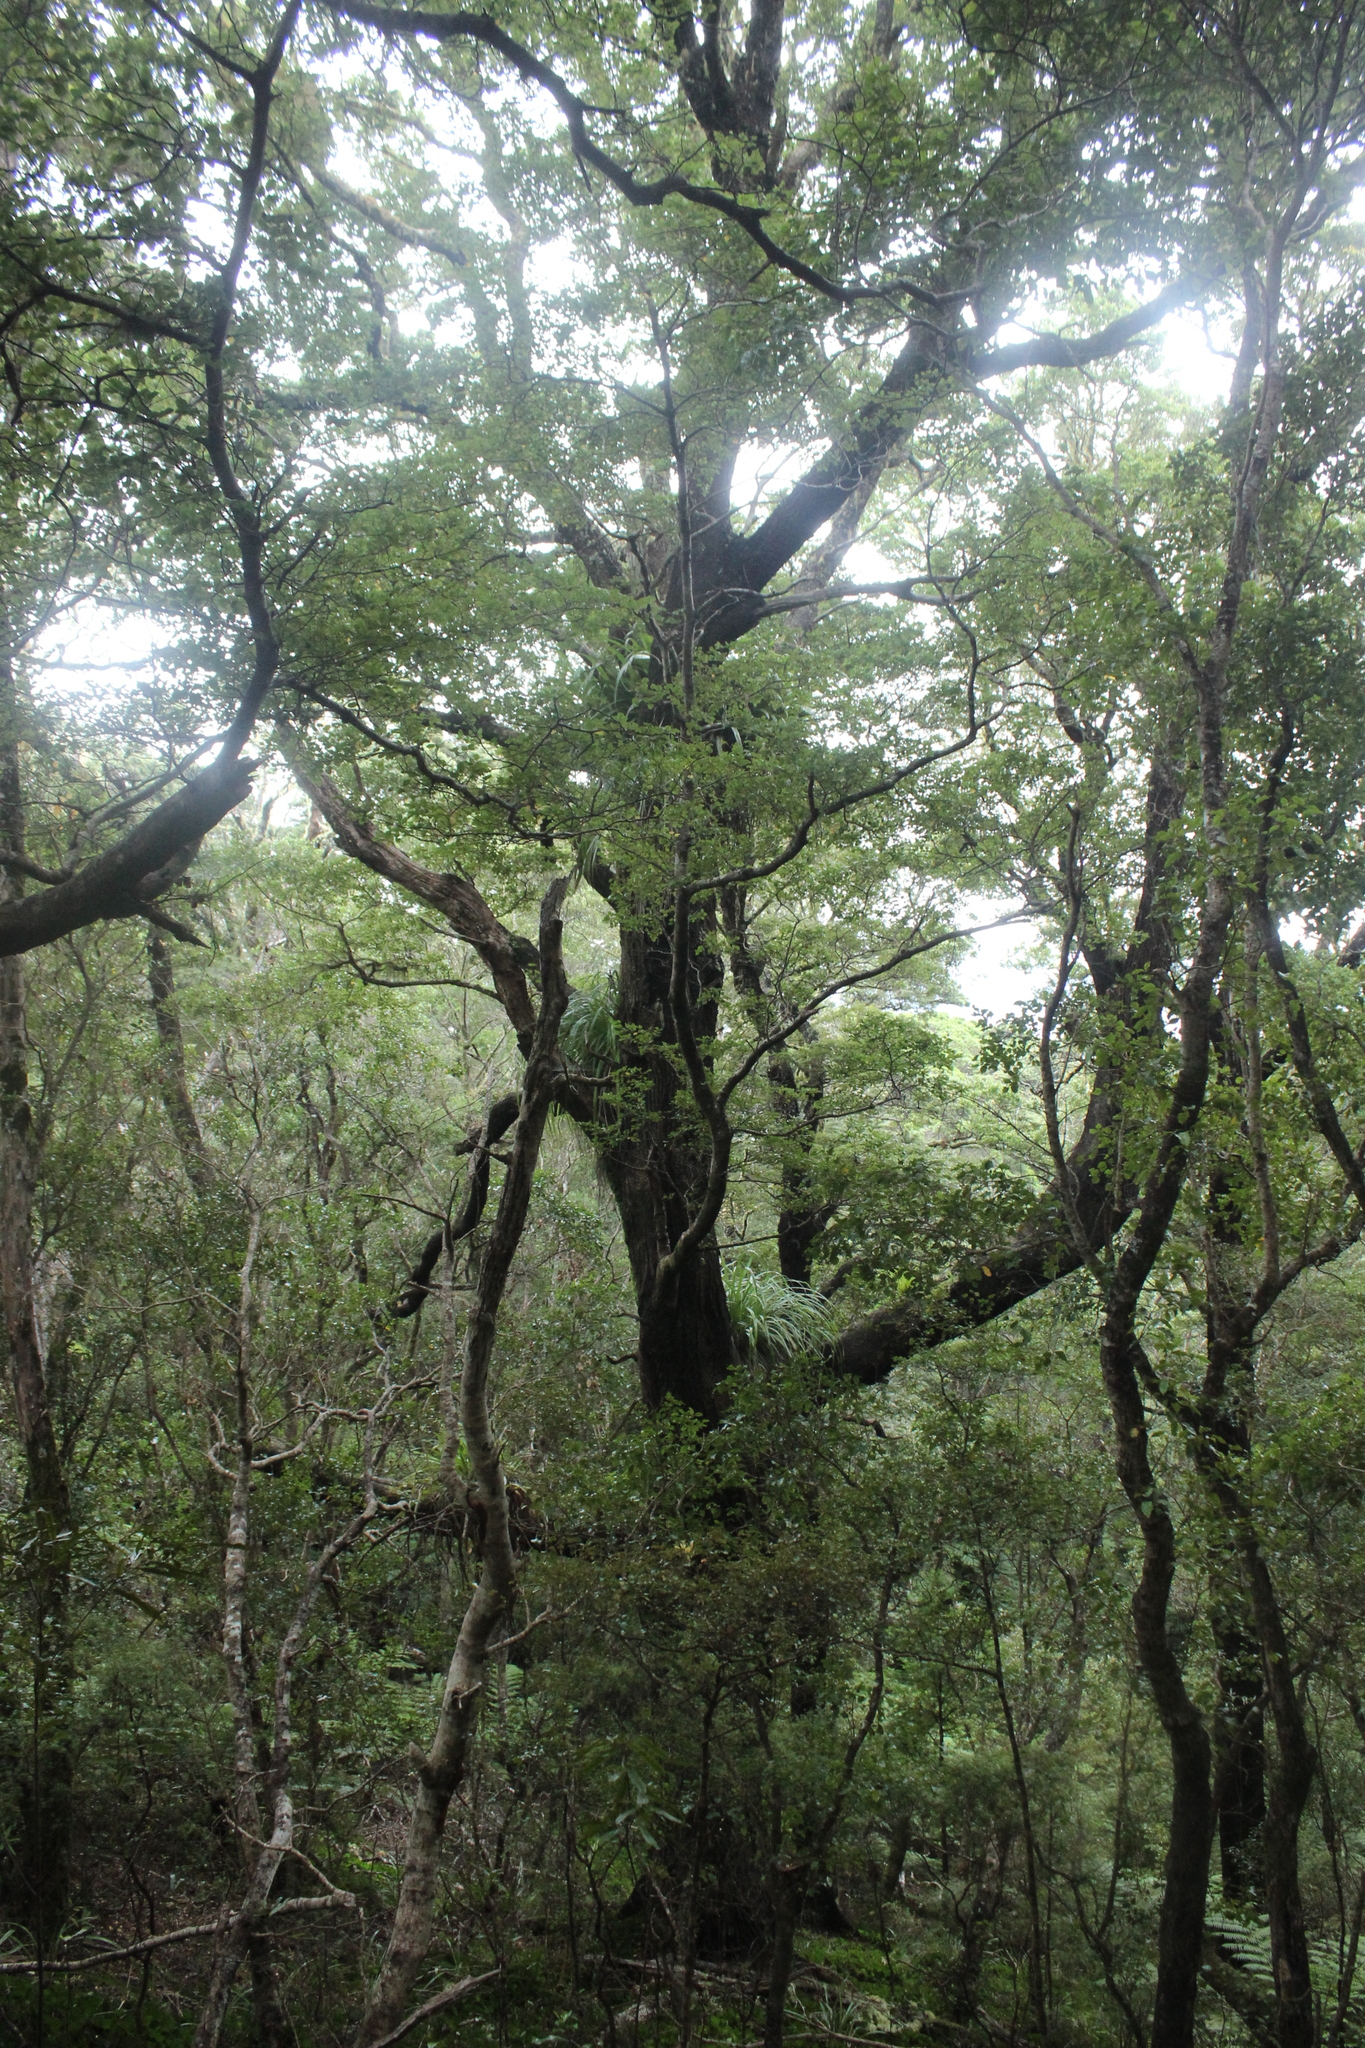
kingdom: Plantae
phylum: Tracheophyta
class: Magnoliopsida
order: Fagales
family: Nothofagaceae
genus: Nothofagus
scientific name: Nothofagus truncata
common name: Hard beech
